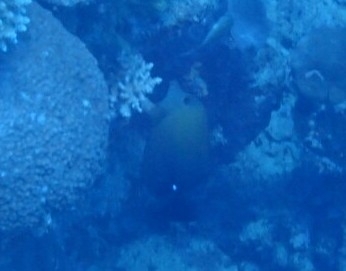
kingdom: Animalia
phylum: Chordata
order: Perciformes
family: Acanthuridae
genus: Zebrasoma
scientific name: Zebrasoma scopas
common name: Twotone tang
